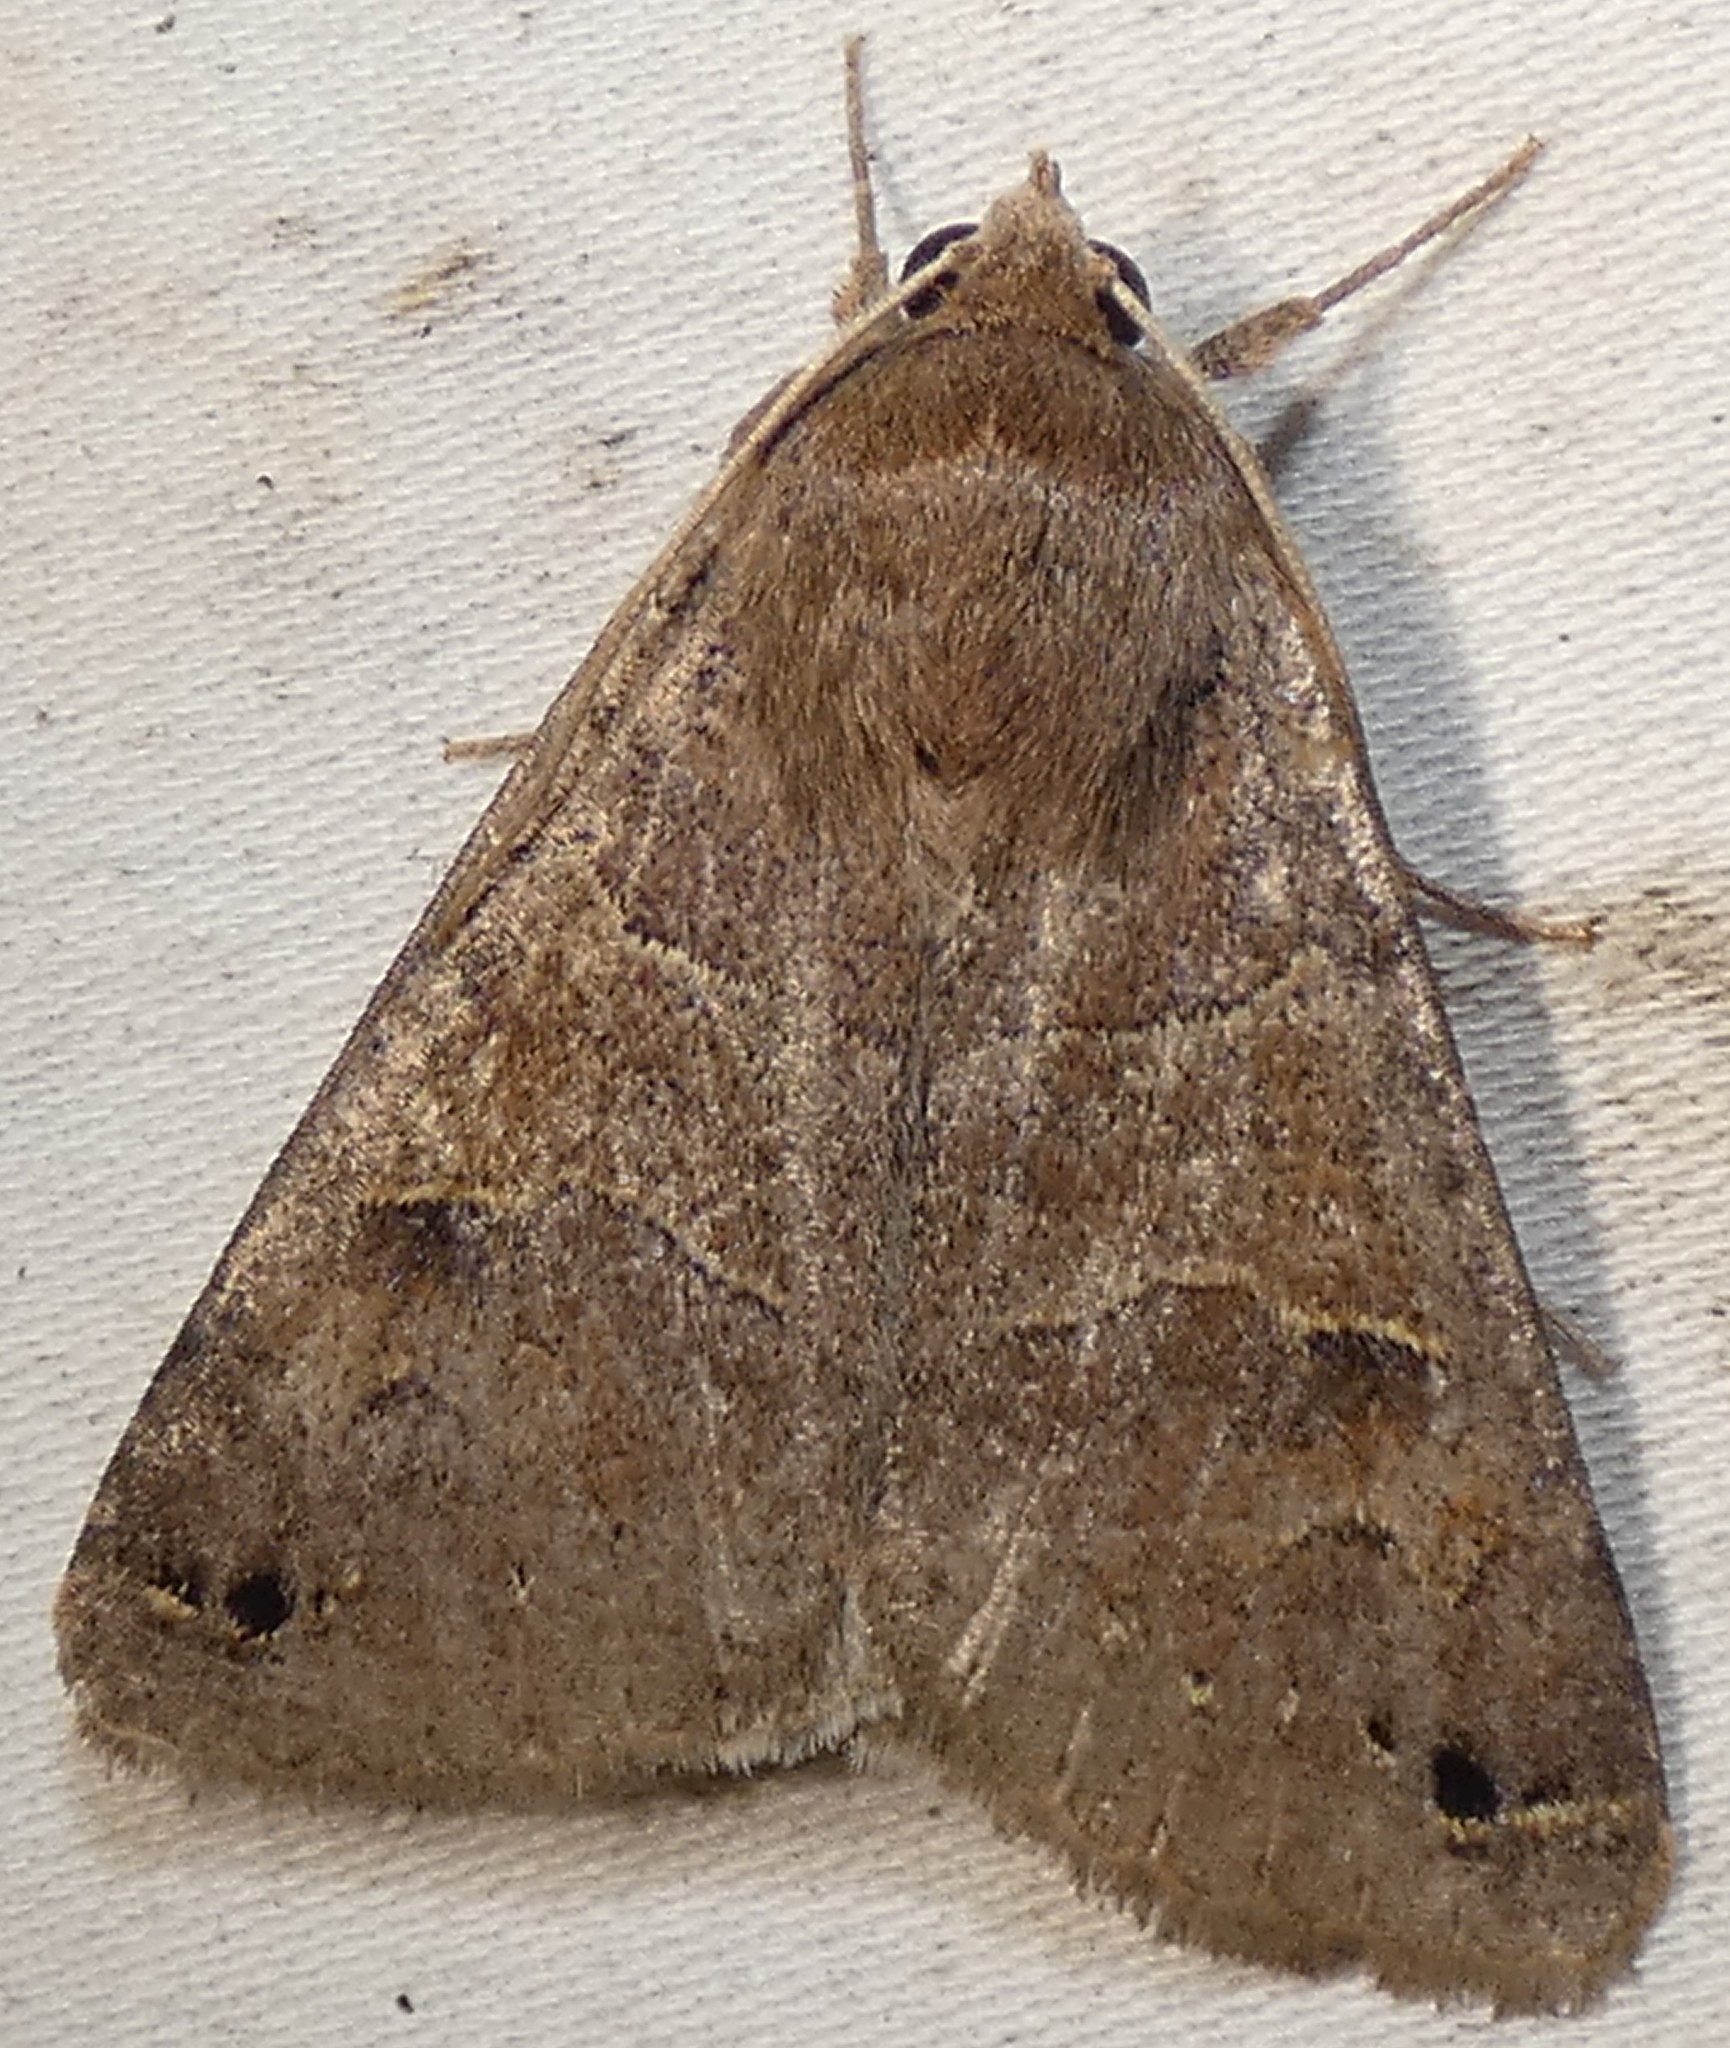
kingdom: Animalia
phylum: Arthropoda
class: Insecta
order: Lepidoptera
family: Erebidae
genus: Cissusa
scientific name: Cissusa spadix
